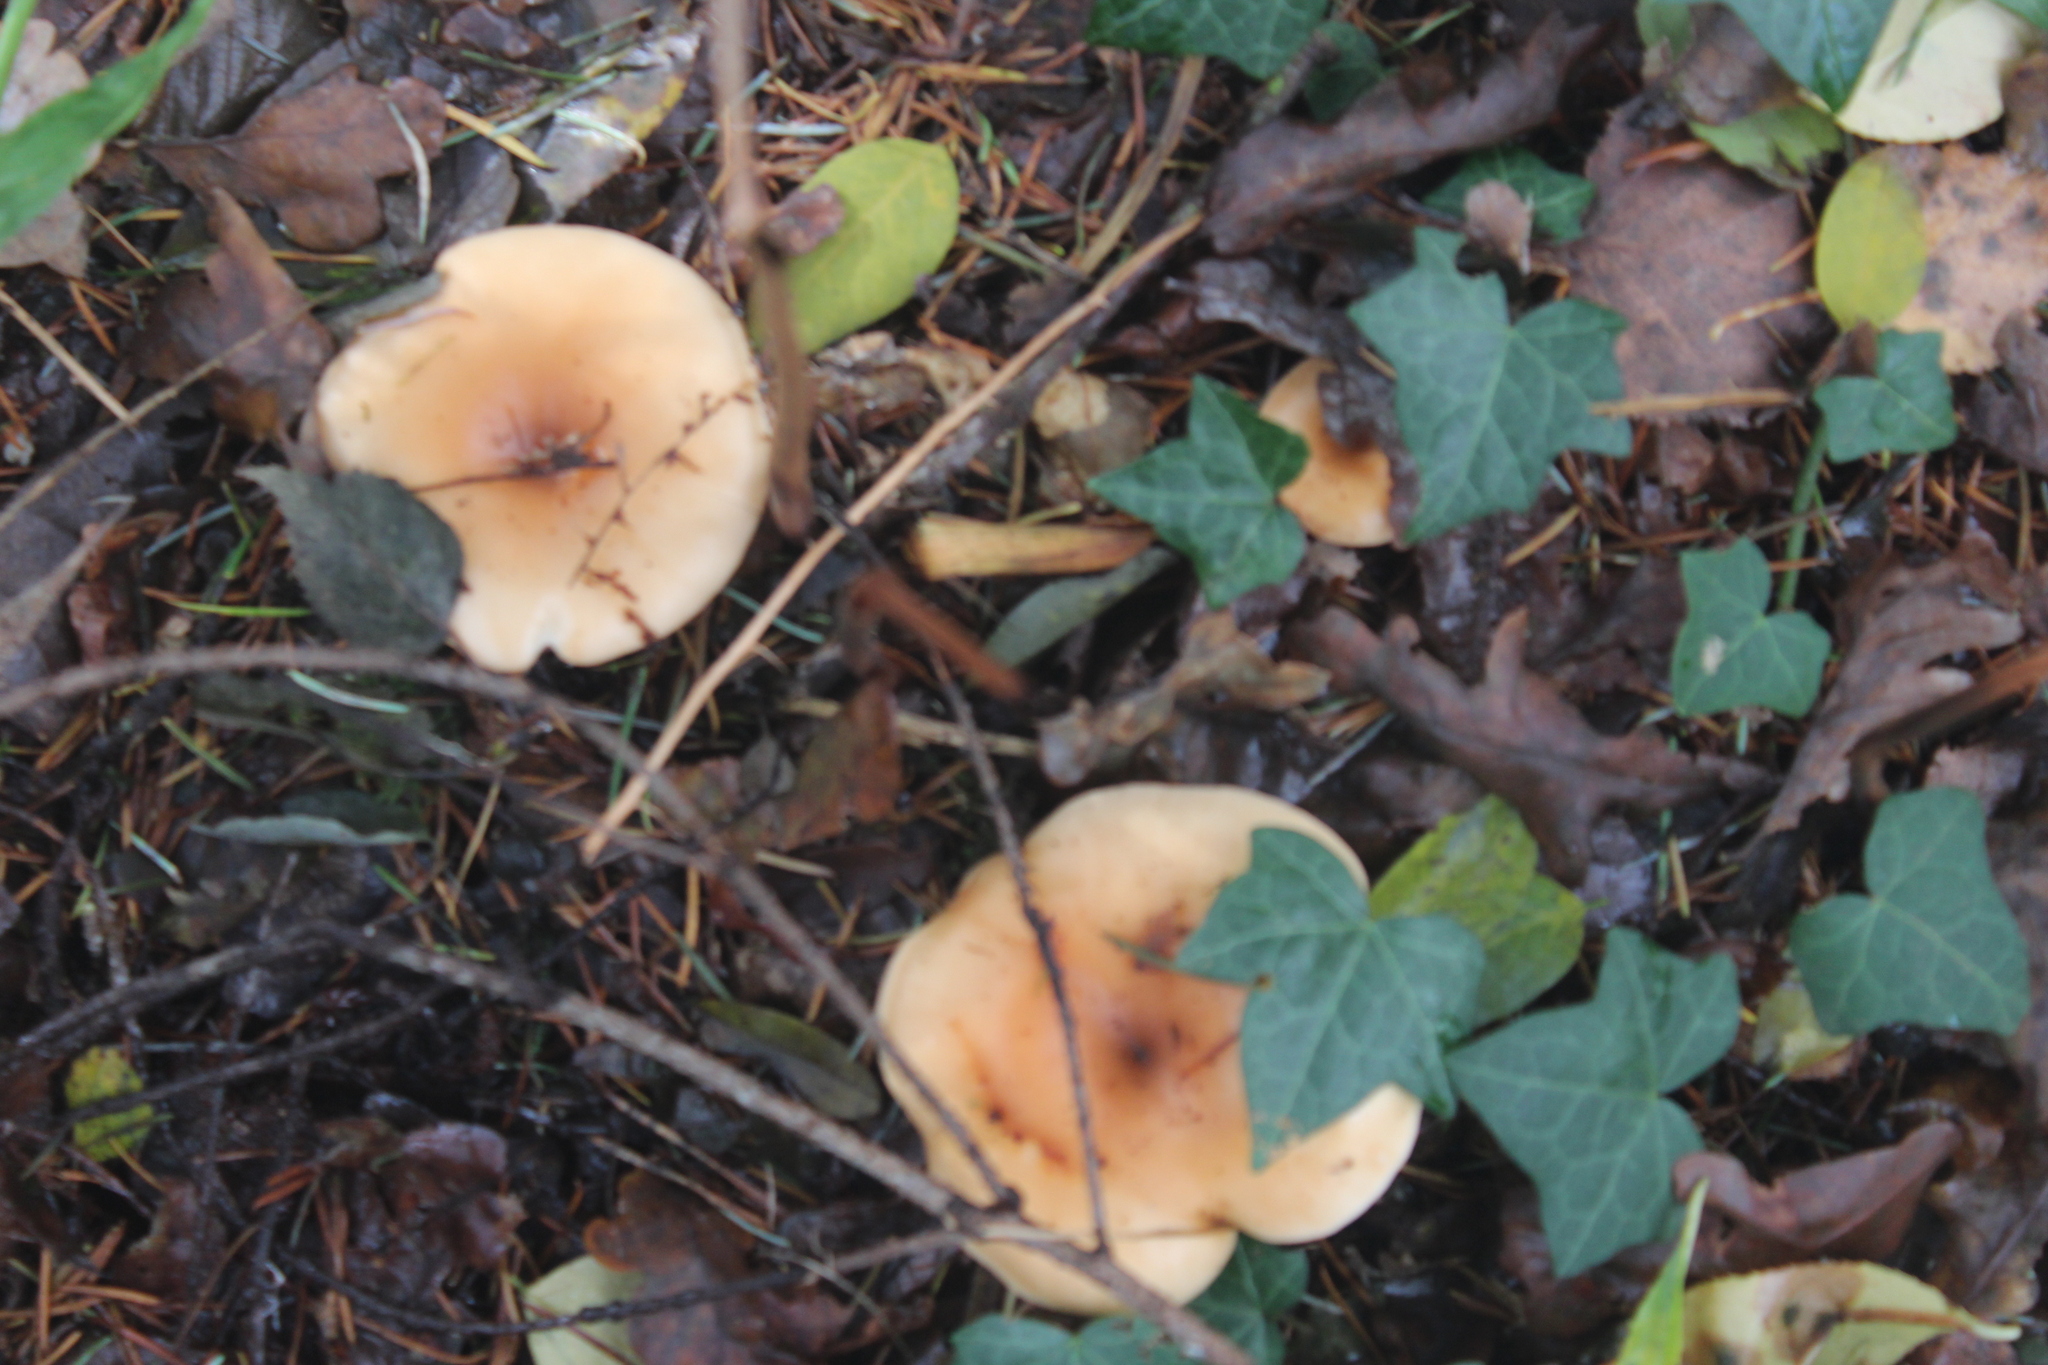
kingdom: Fungi
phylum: Basidiomycota
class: Agaricomycetes
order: Agaricales
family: Tricholomataceae
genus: Paralepista
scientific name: Paralepista flaccida
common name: Tawny funnel cap
